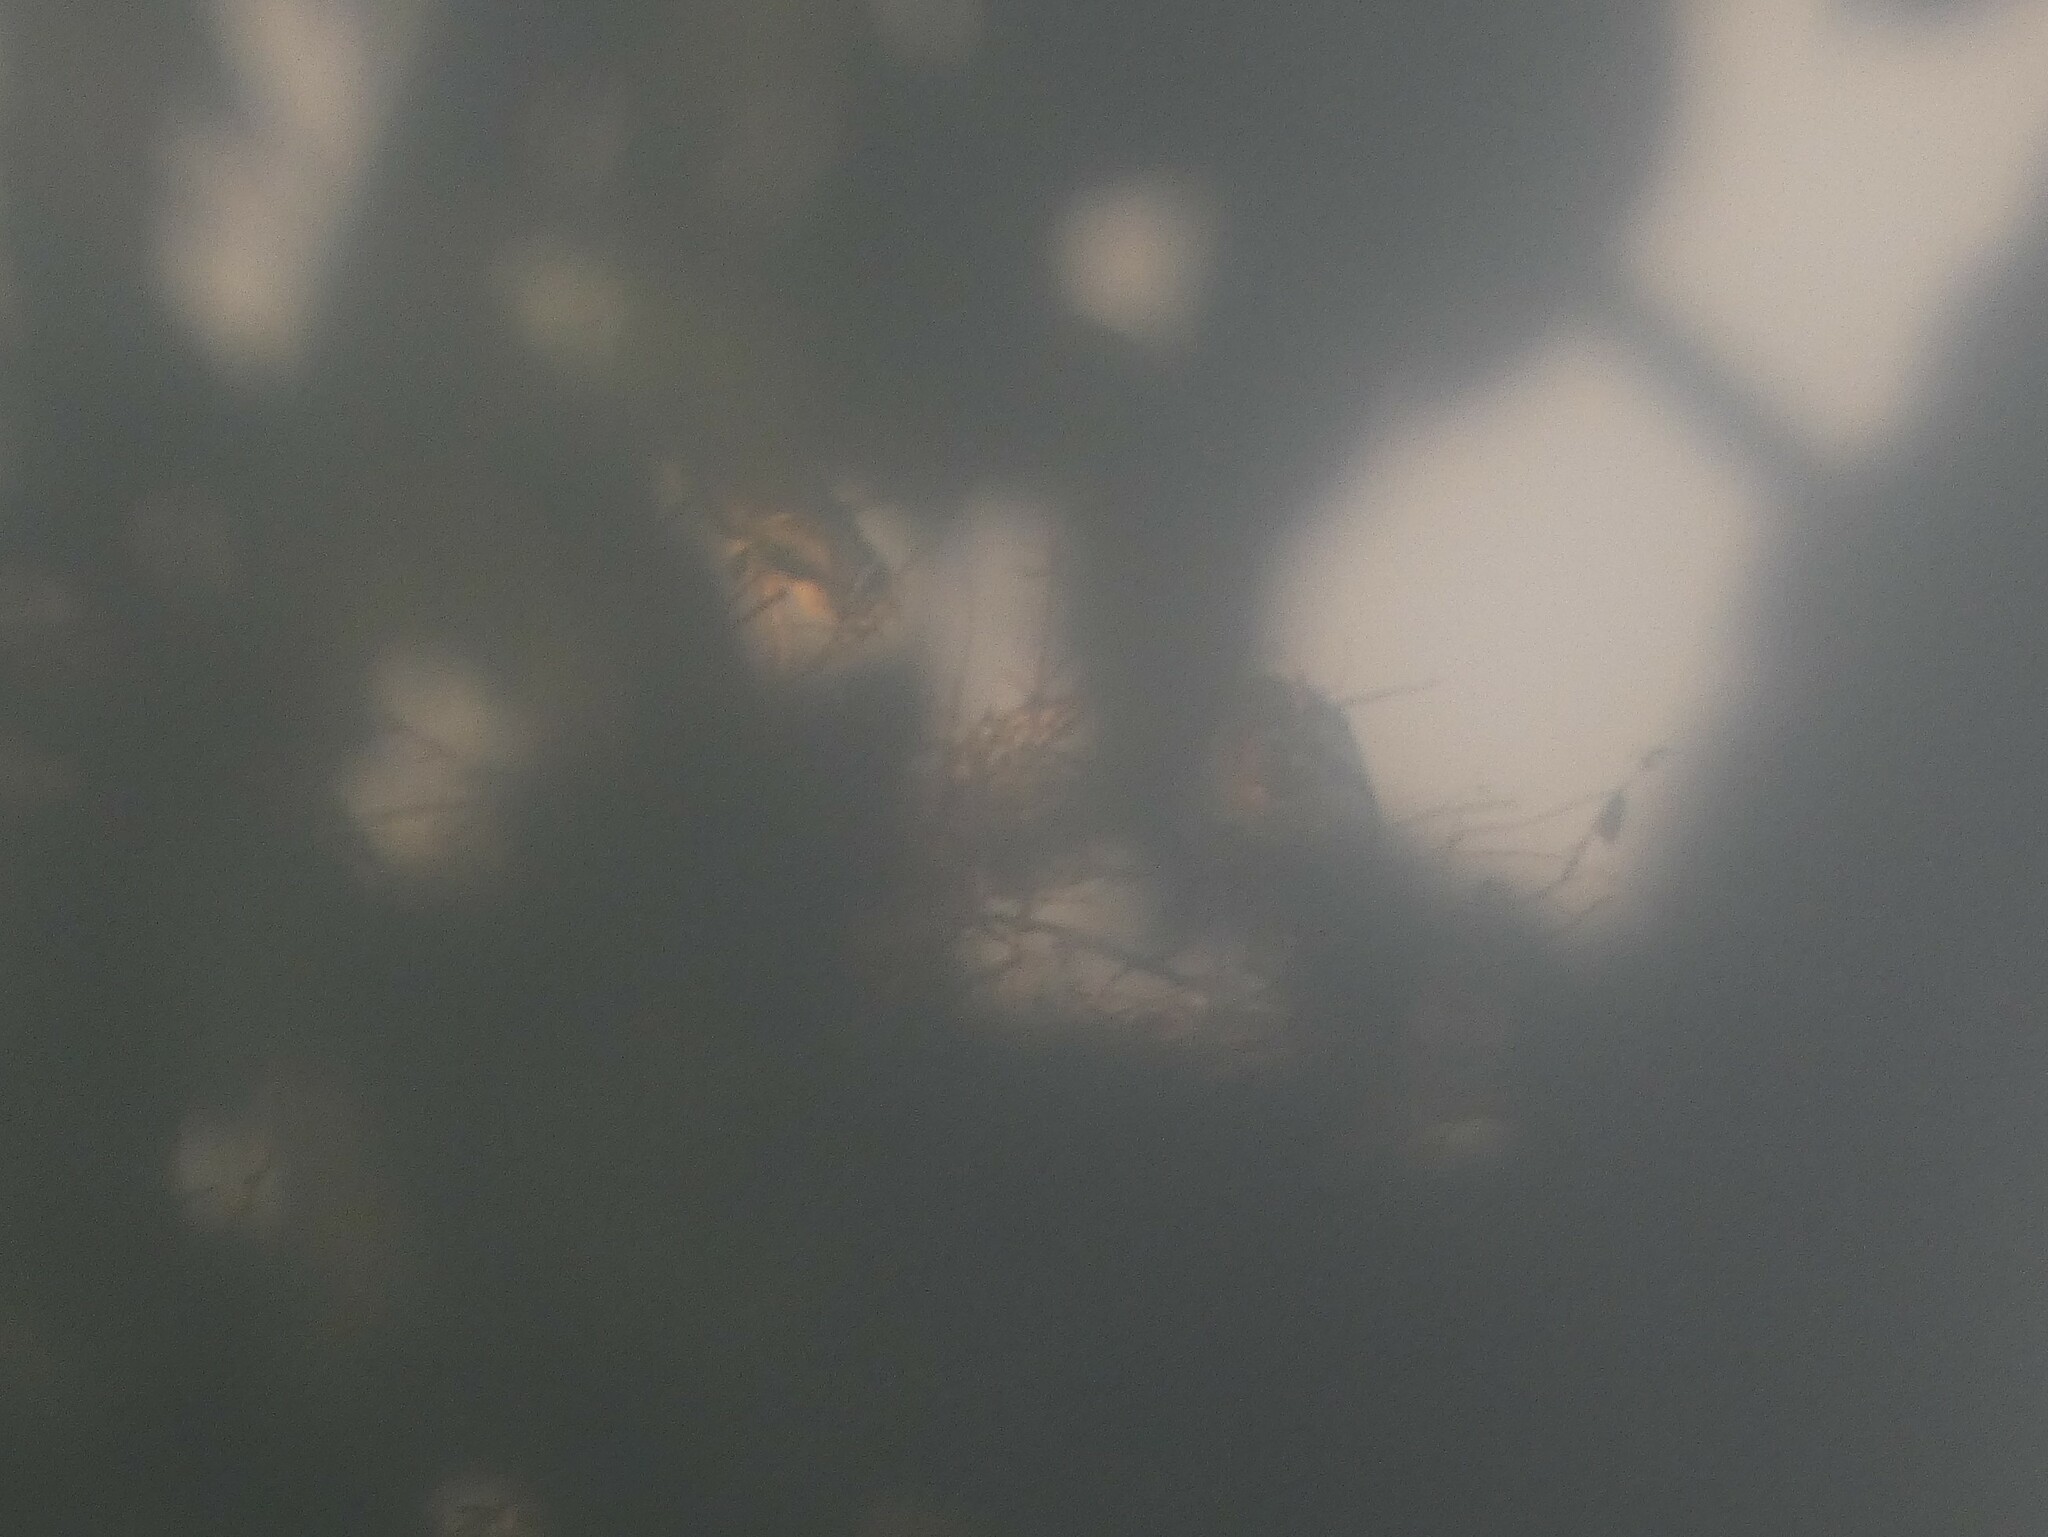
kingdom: Animalia
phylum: Chordata
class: Aves
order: Ciconiiformes
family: Ciconiidae
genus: Mycteria
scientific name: Mycteria leucocephala
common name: Painted stork
